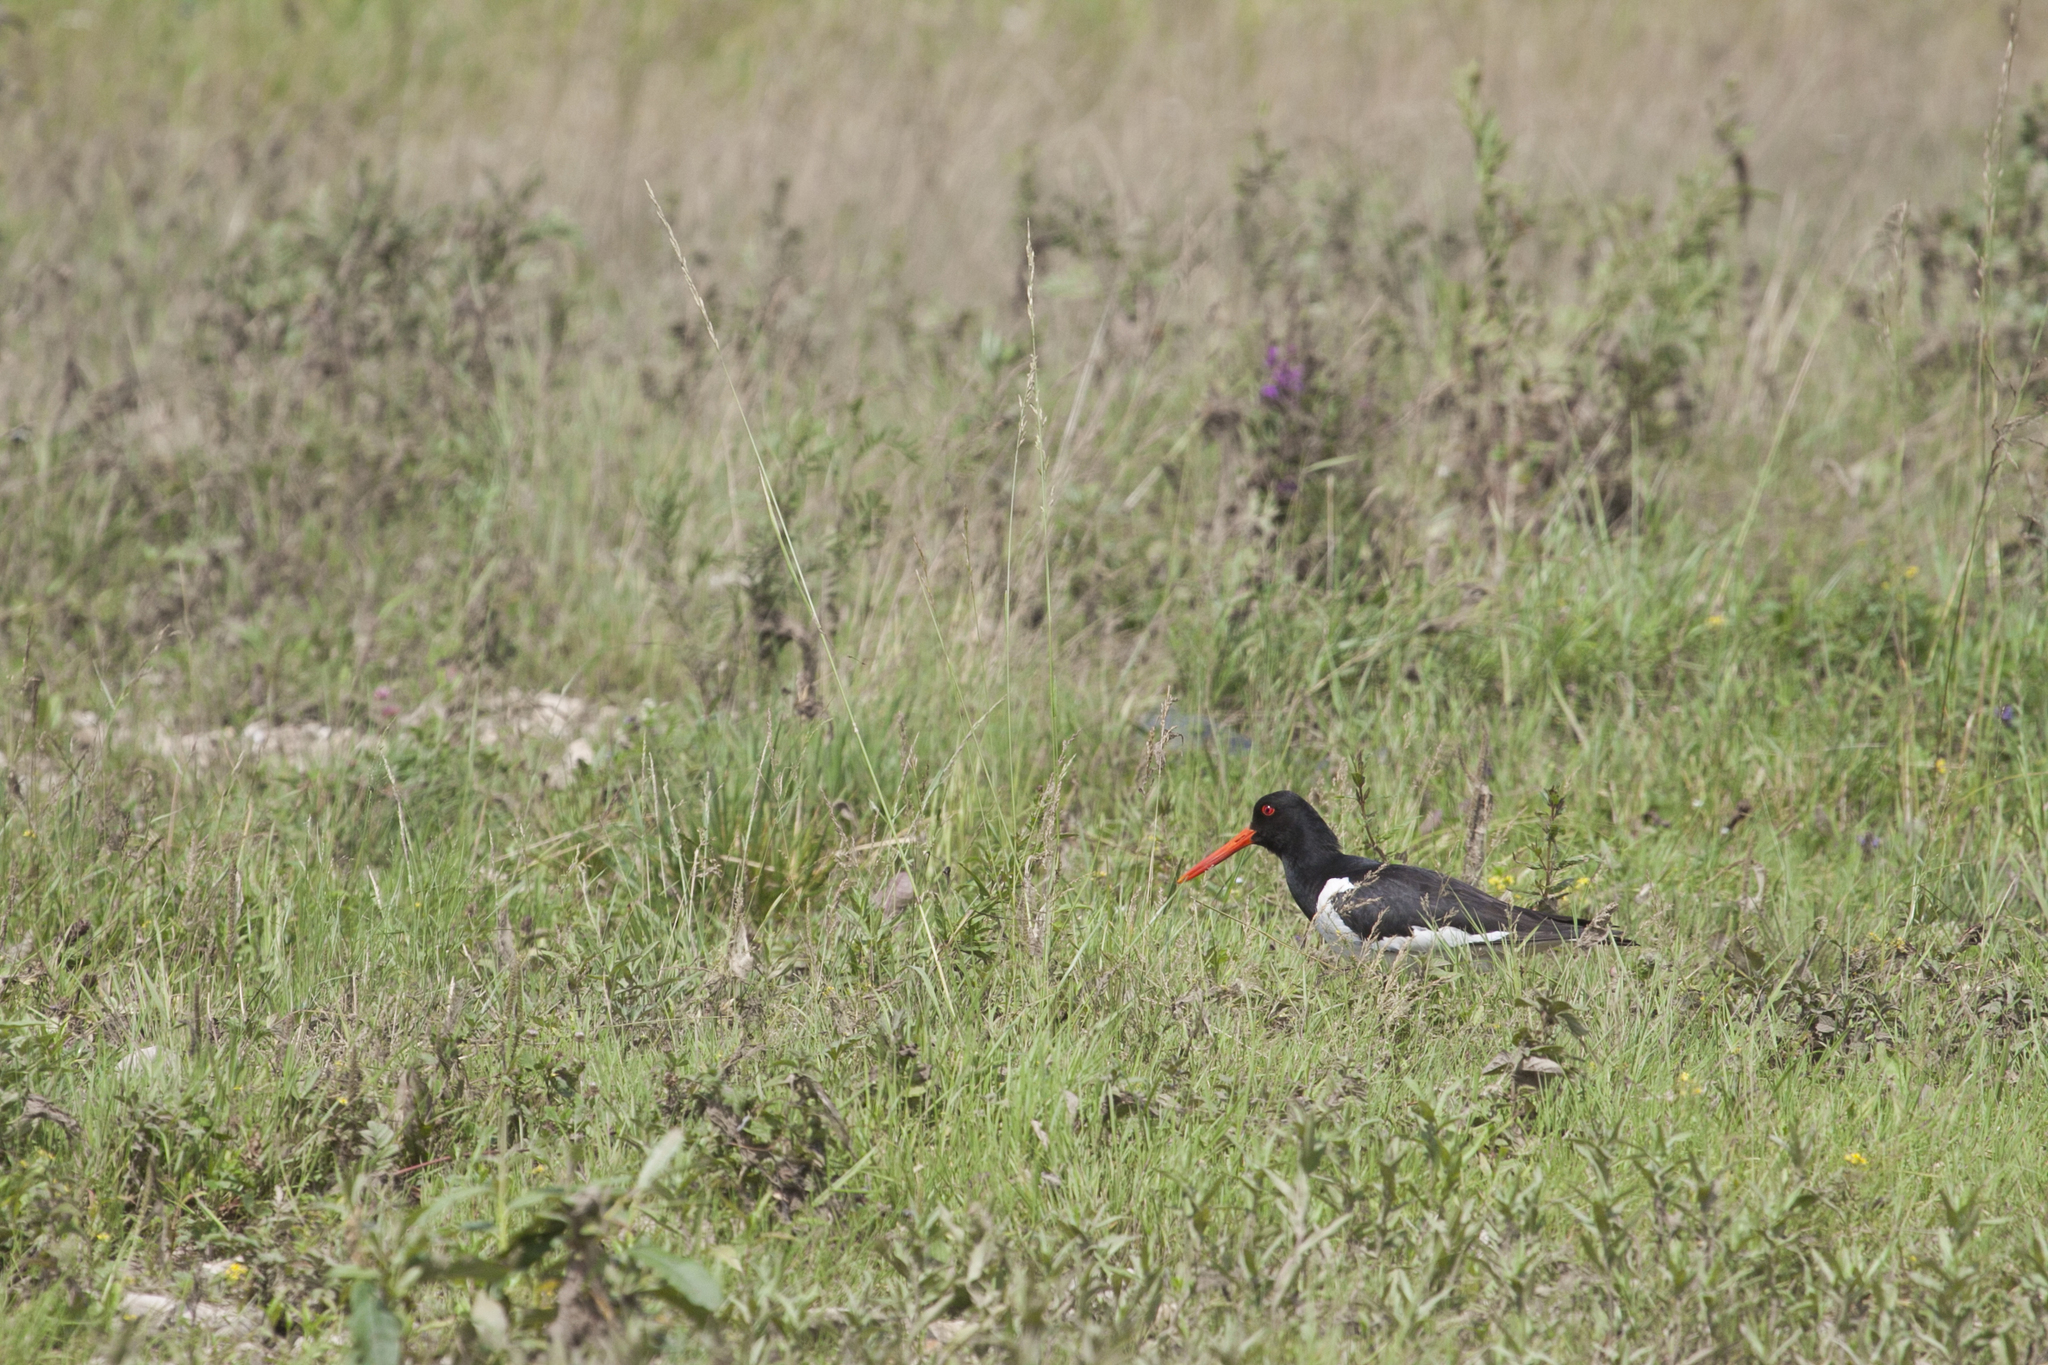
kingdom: Animalia
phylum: Chordata
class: Aves
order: Charadriiformes
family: Haematopodidae
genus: Haematopus
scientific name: Haematopus ostralegus
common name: Eurasian oystercatcher
